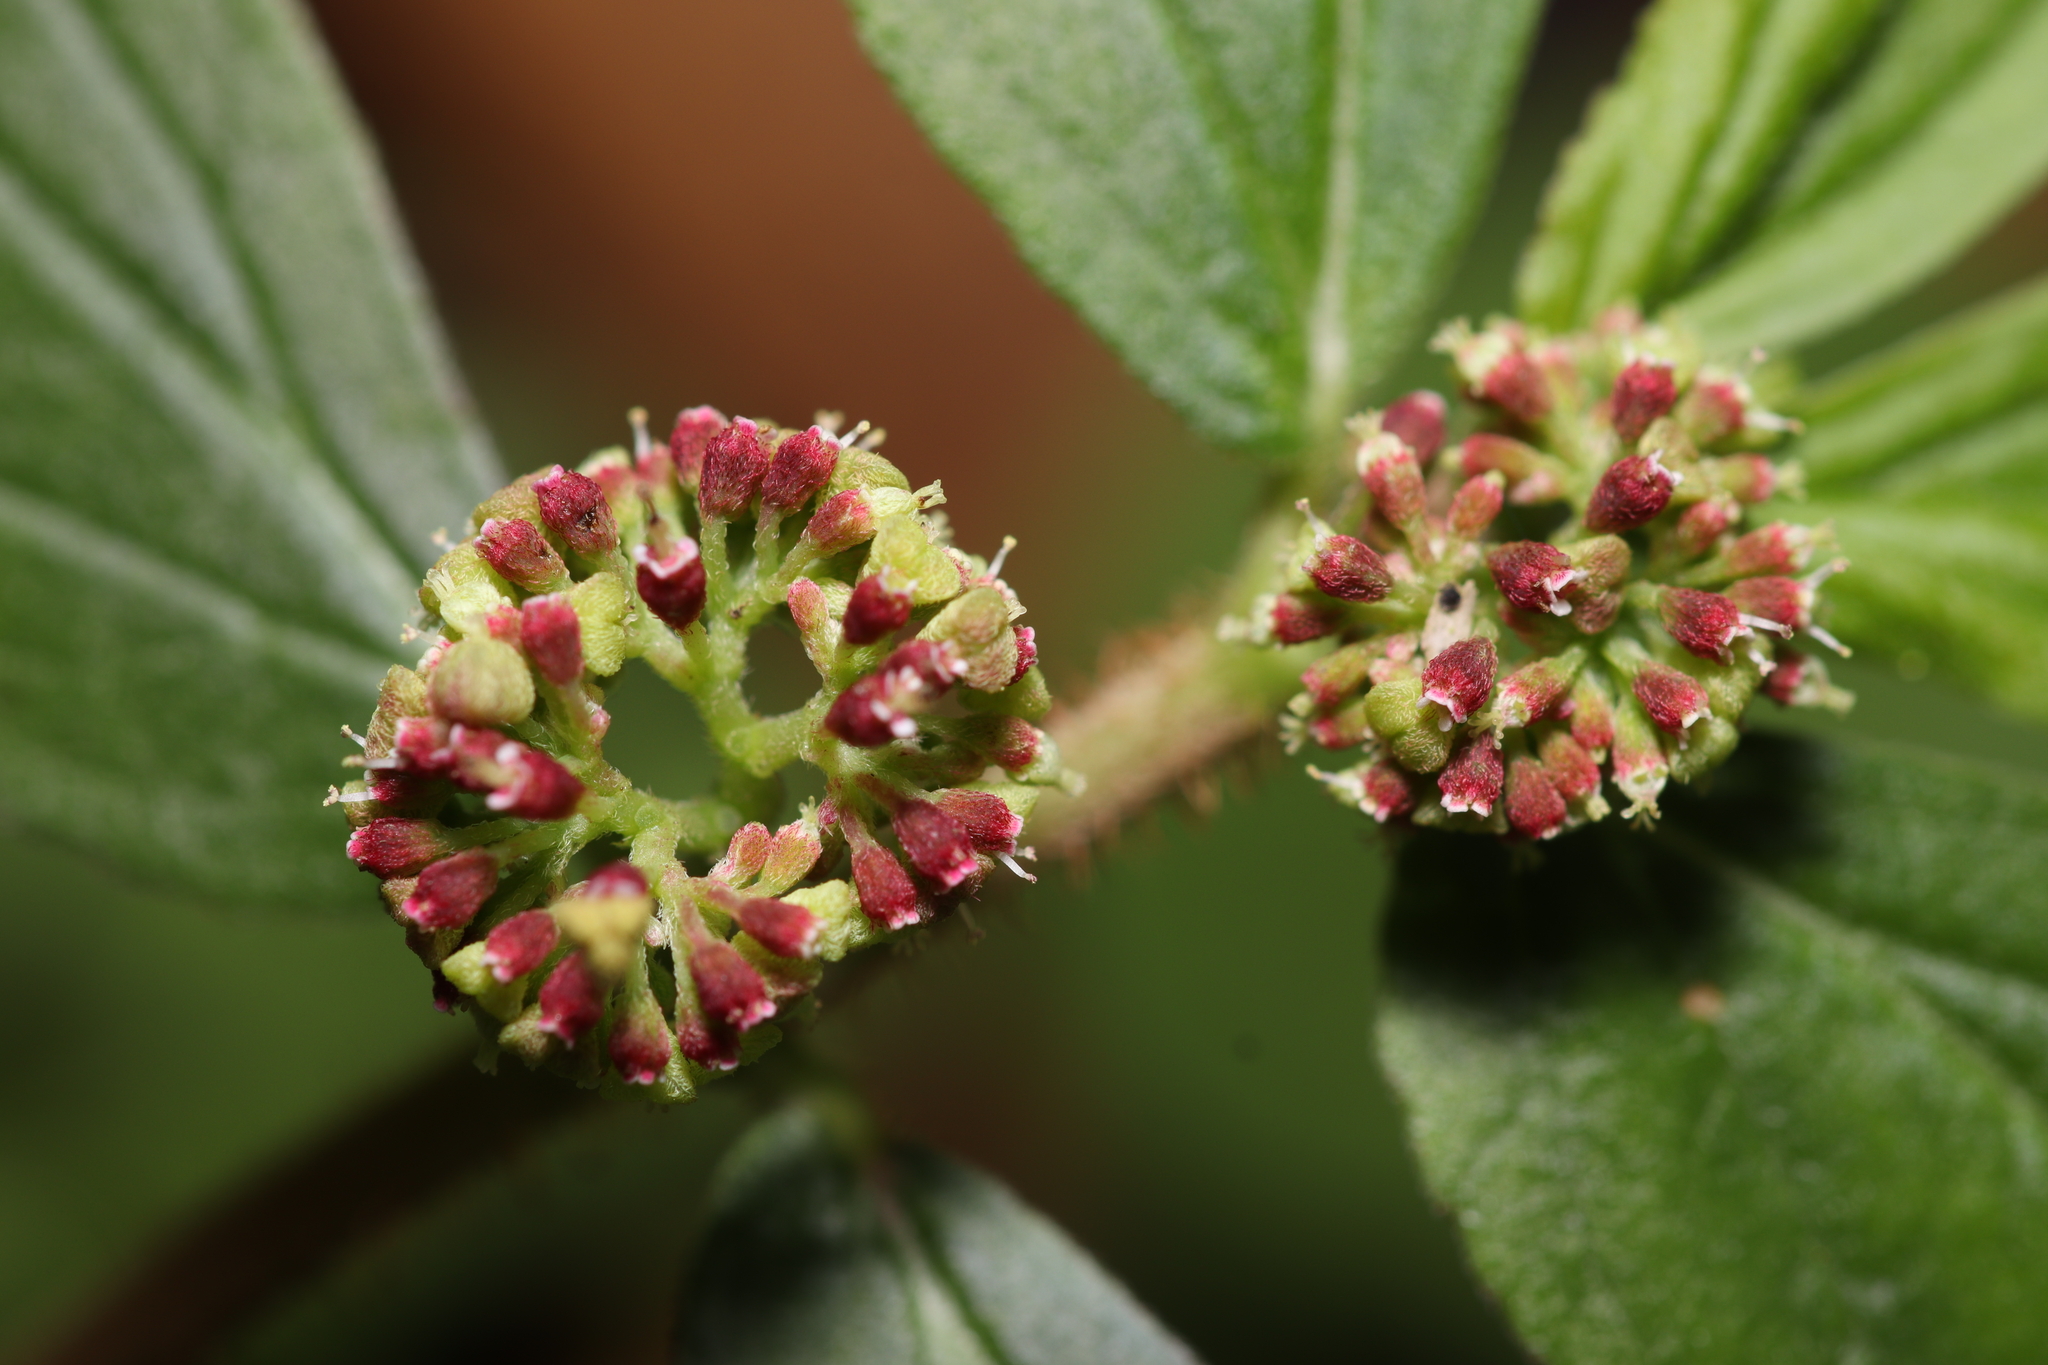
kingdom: Plantae
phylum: Tracheophyta
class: Magnoliopsida
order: Malpighiales
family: Euphorbiaceae
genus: Euphorbia
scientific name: Euphorbia hirta
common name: Pillpod sandmat
